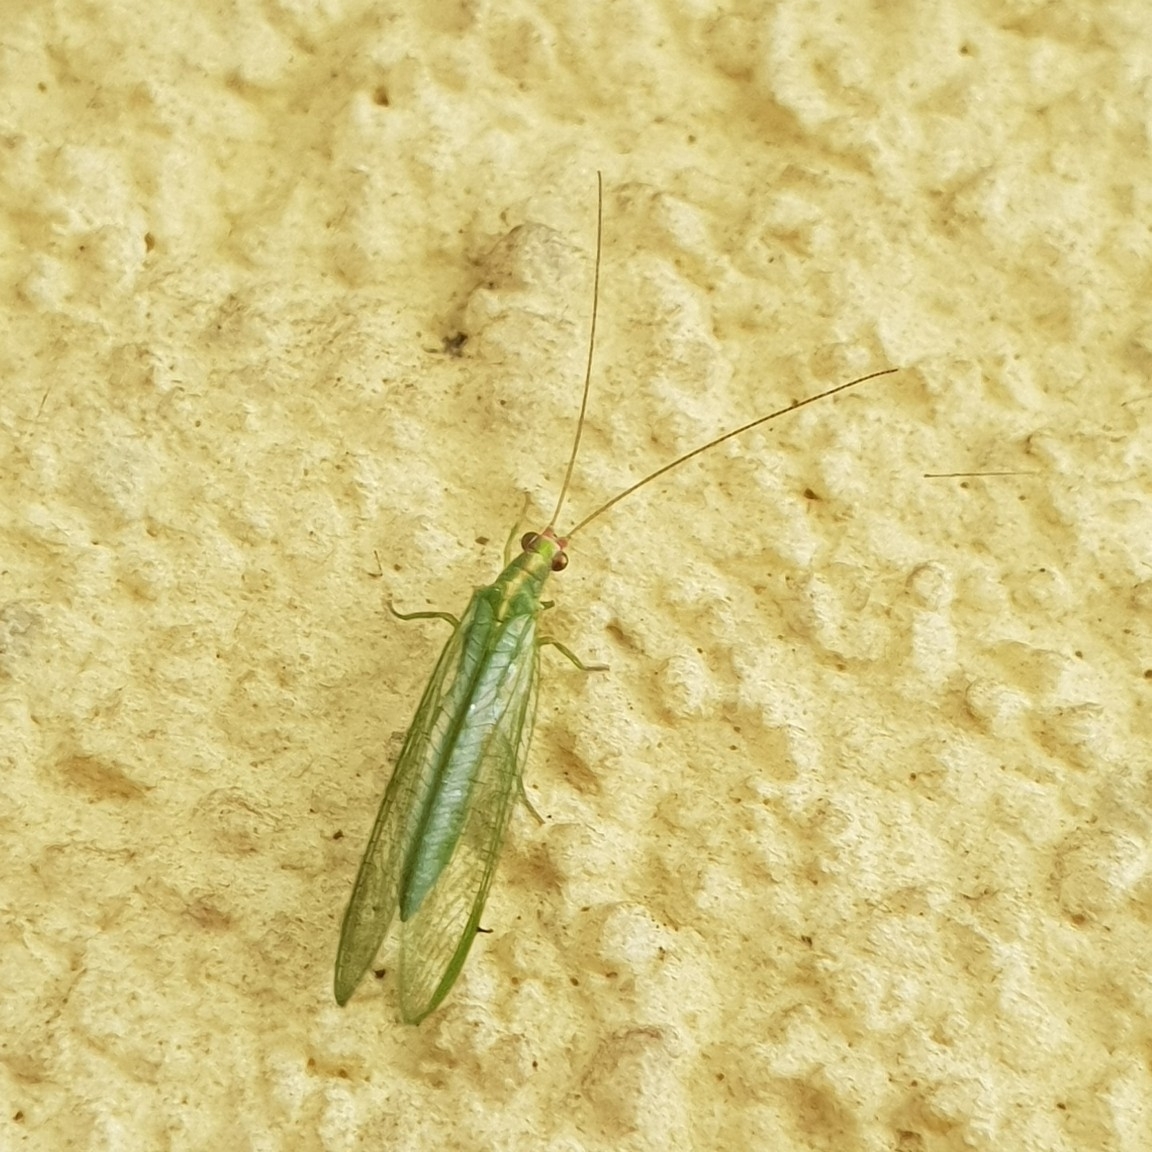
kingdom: Animalia
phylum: Arthropoda
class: Insecta
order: Neuroptera
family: Chrysopidae
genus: Peyerimhoffina
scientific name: Peyerimhoffina gracilis
